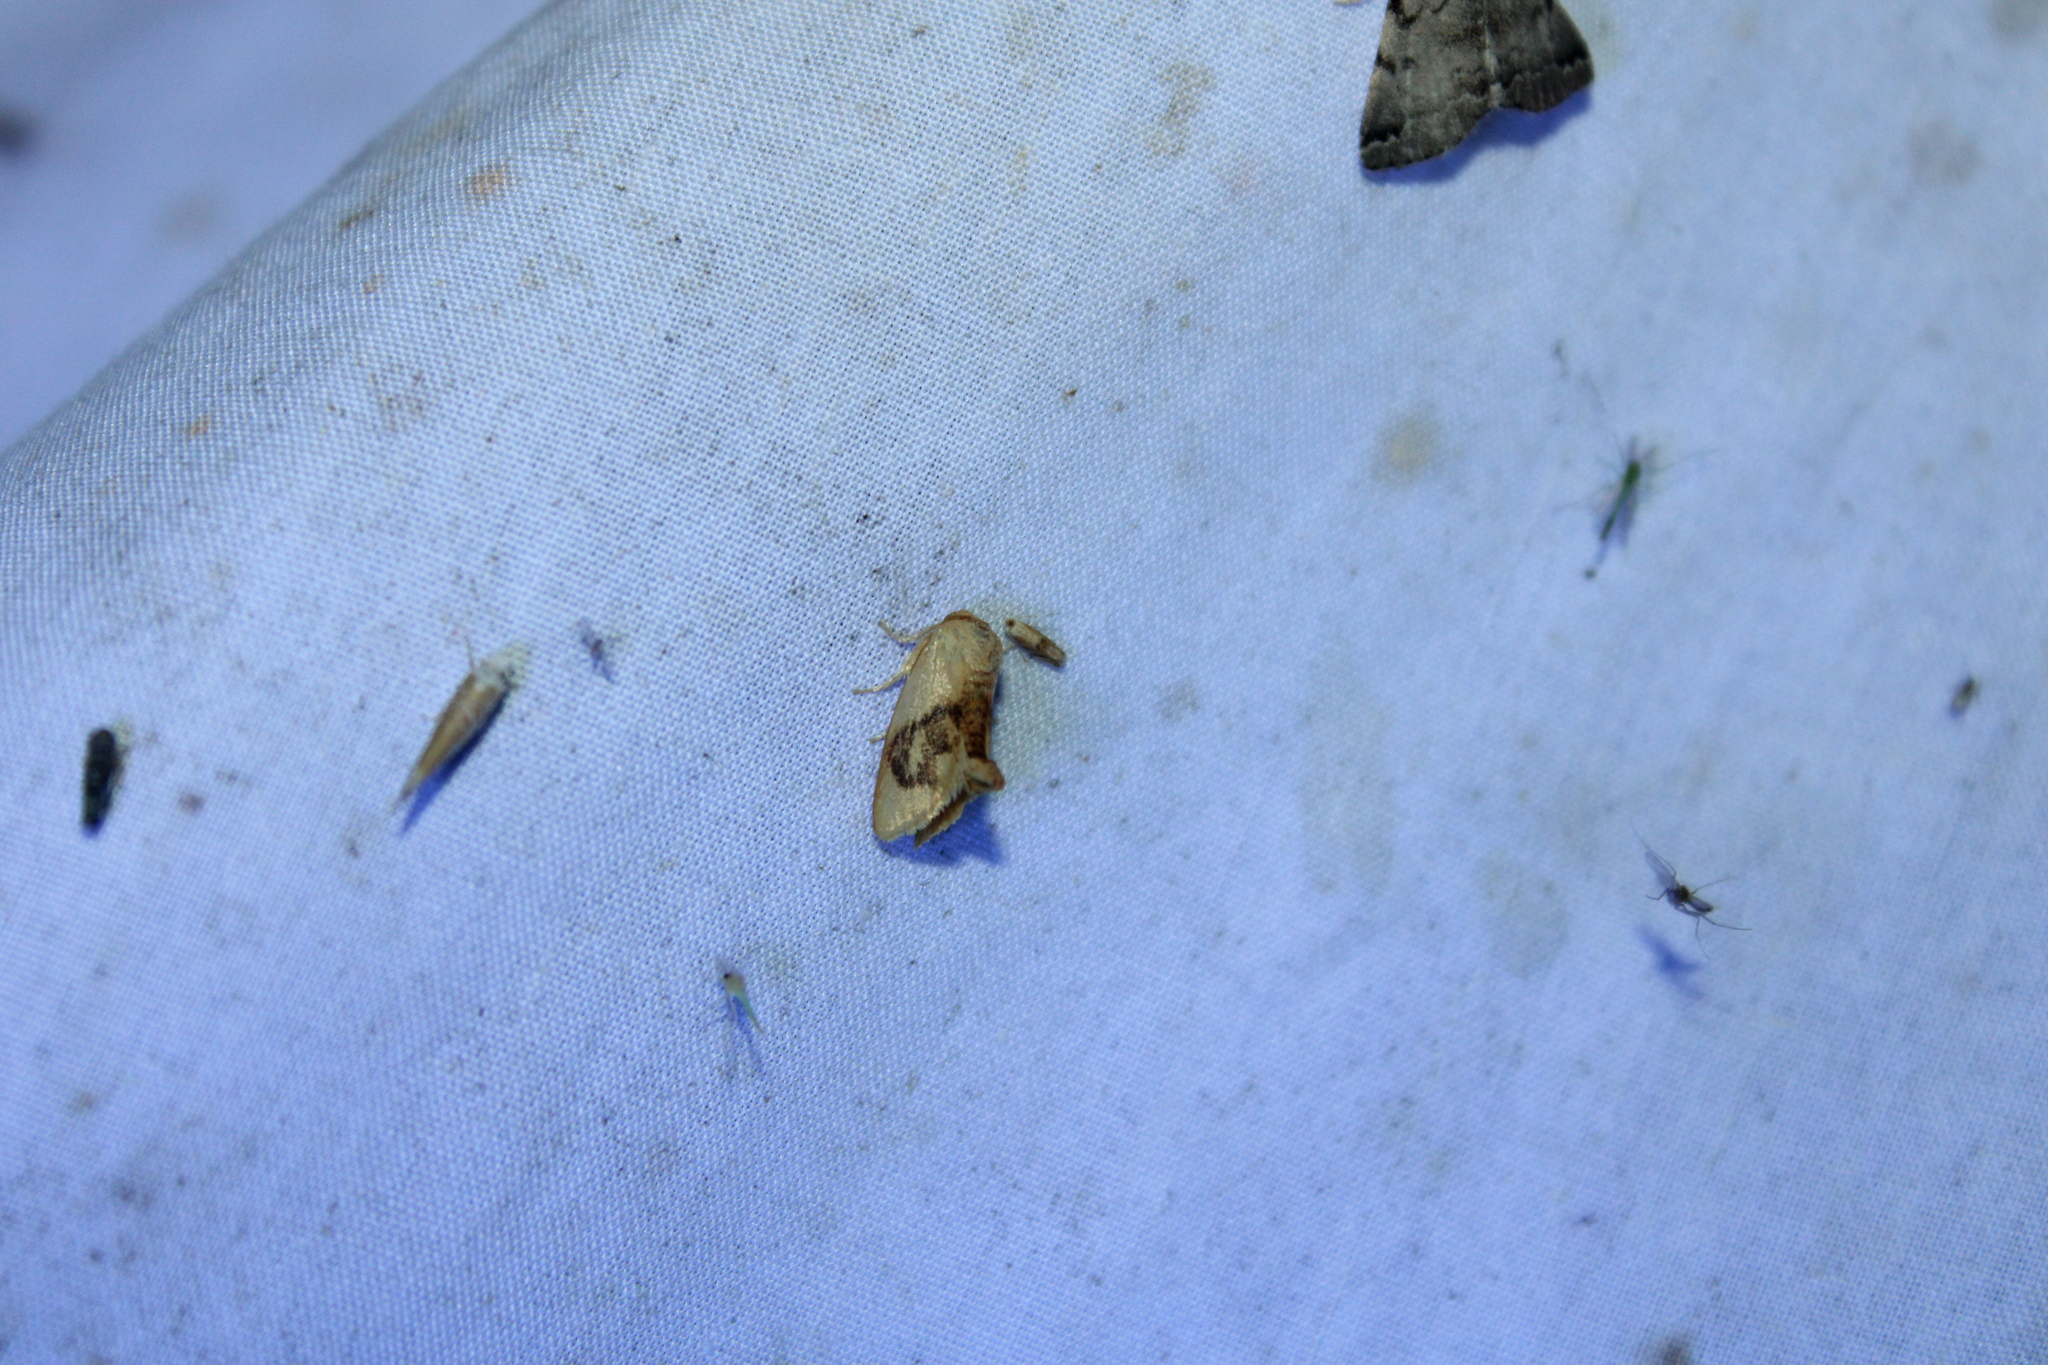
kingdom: Animalia
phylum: Arthropoda
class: Insecta
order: Lepidoptera
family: Limacodidae
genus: Tortricidia
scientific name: Tortricidia flexuosa
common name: Abbreviated button slug moth
